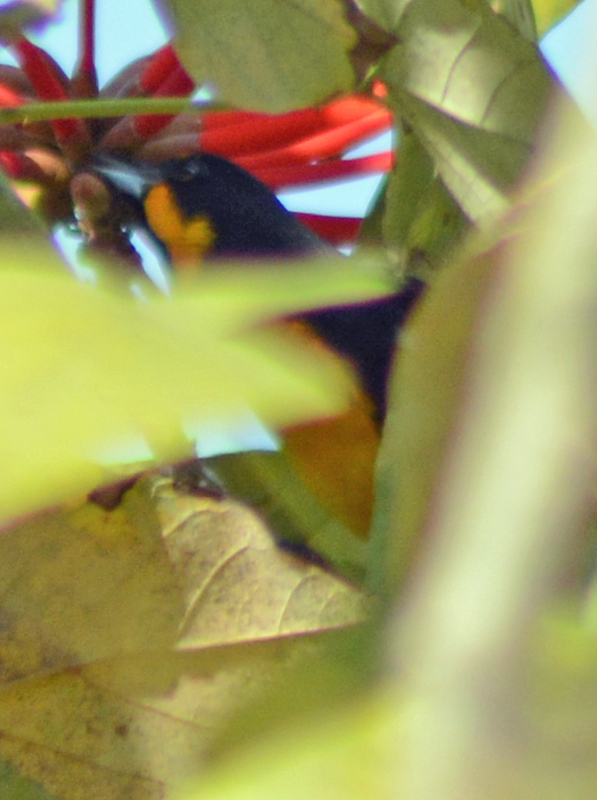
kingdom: Animalia
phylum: Chordata
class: Aves
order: Passeriformes
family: Icteridae
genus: Icterus
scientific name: Icterus abeillei
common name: Black-backed oriole
